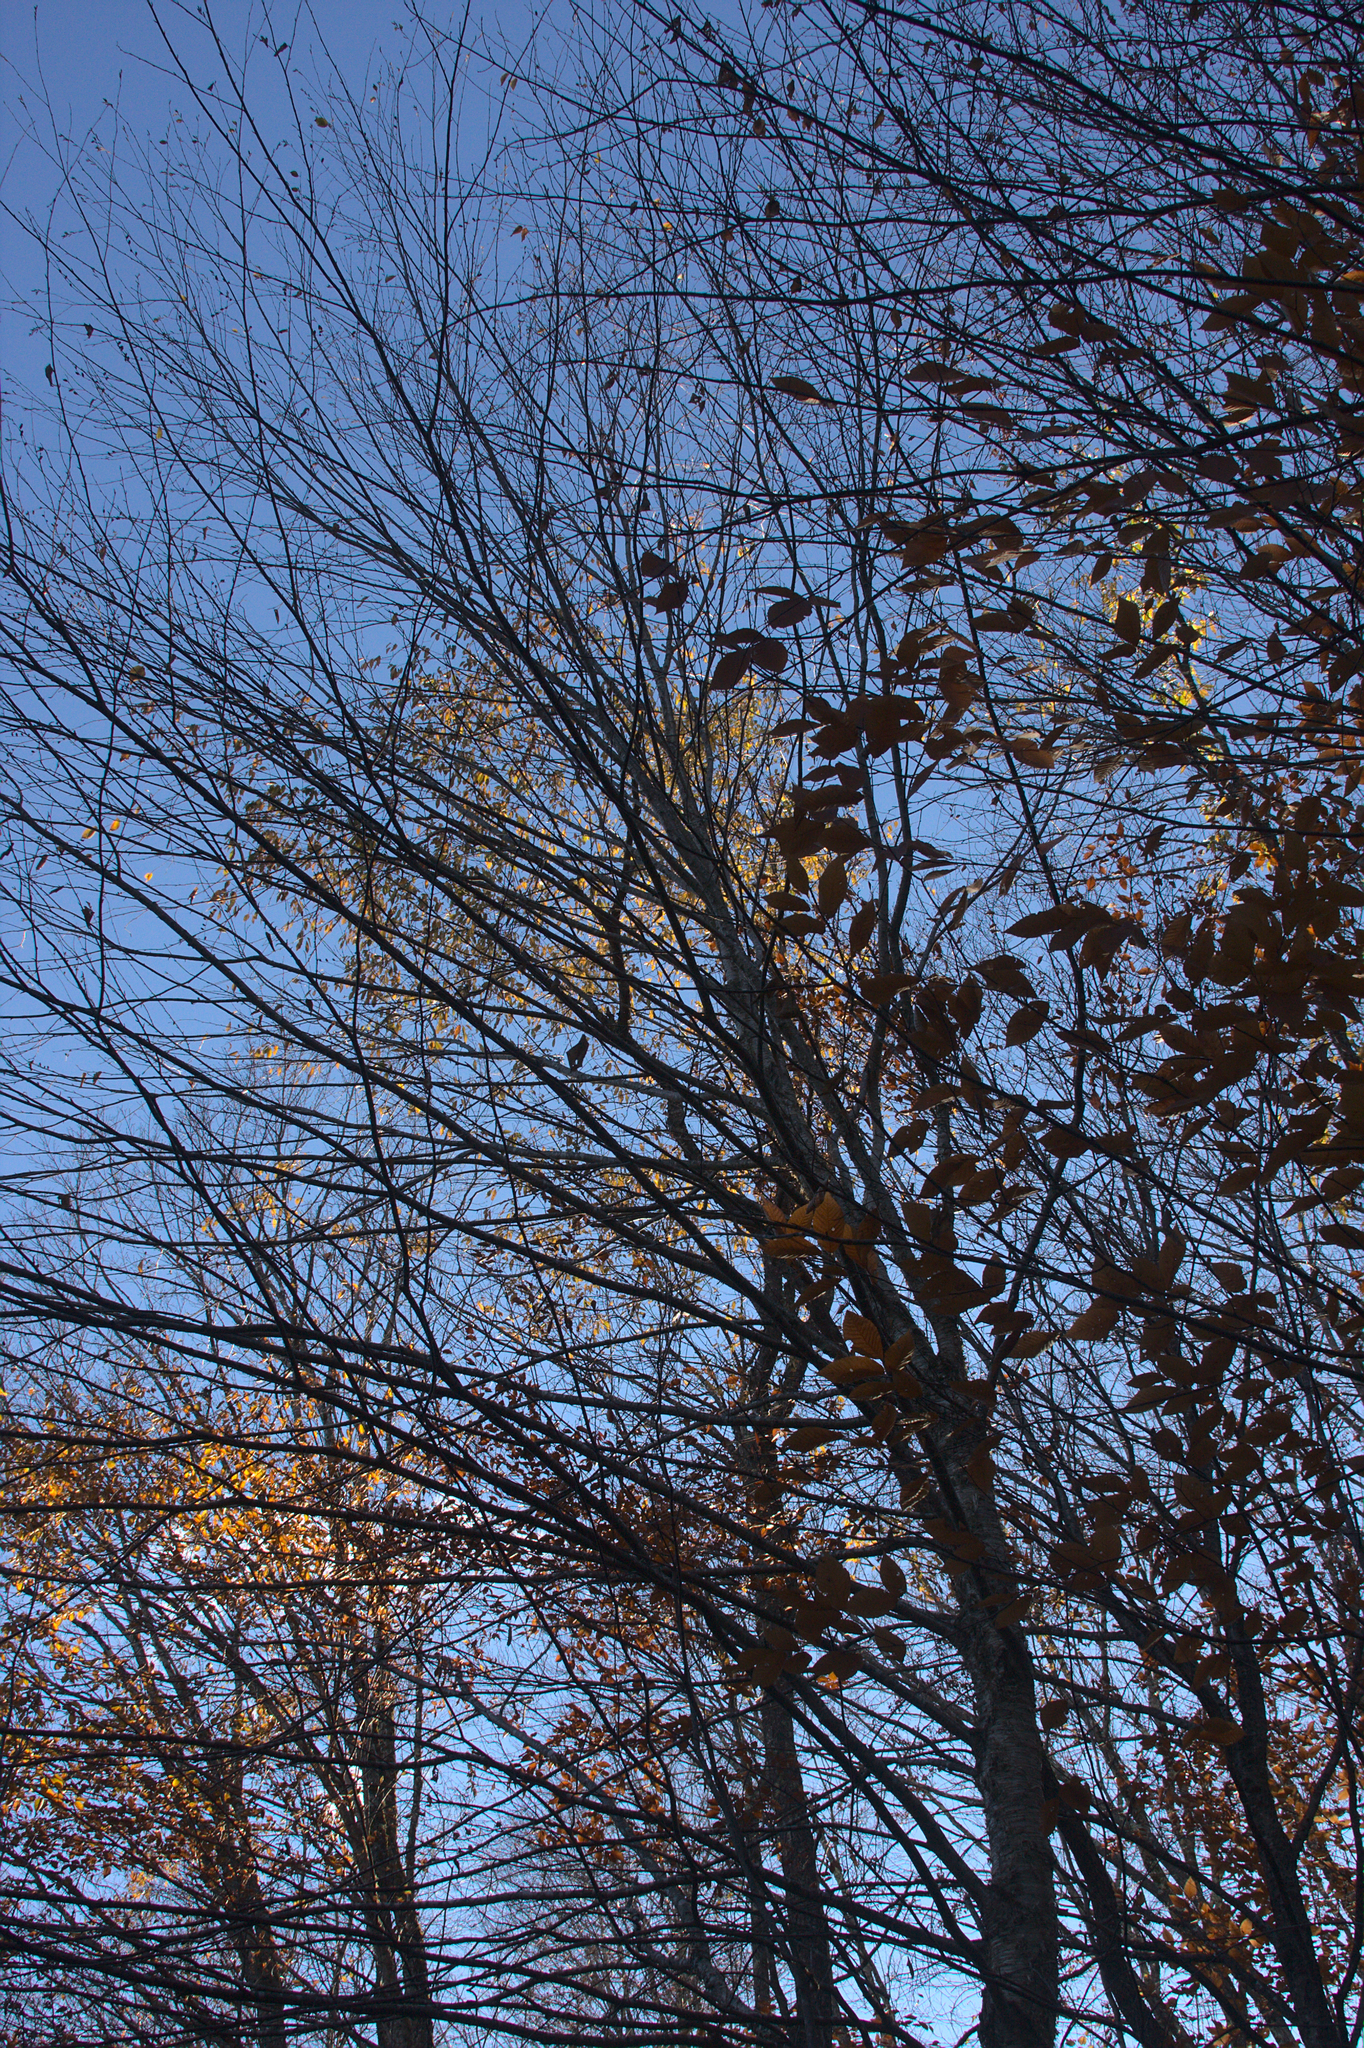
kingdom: Plantae
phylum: Tracheophyta
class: Magnoliopsida
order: Fagales
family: Betulaceae
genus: Betula
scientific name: Betula alleghaniensis
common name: Yellow birch
